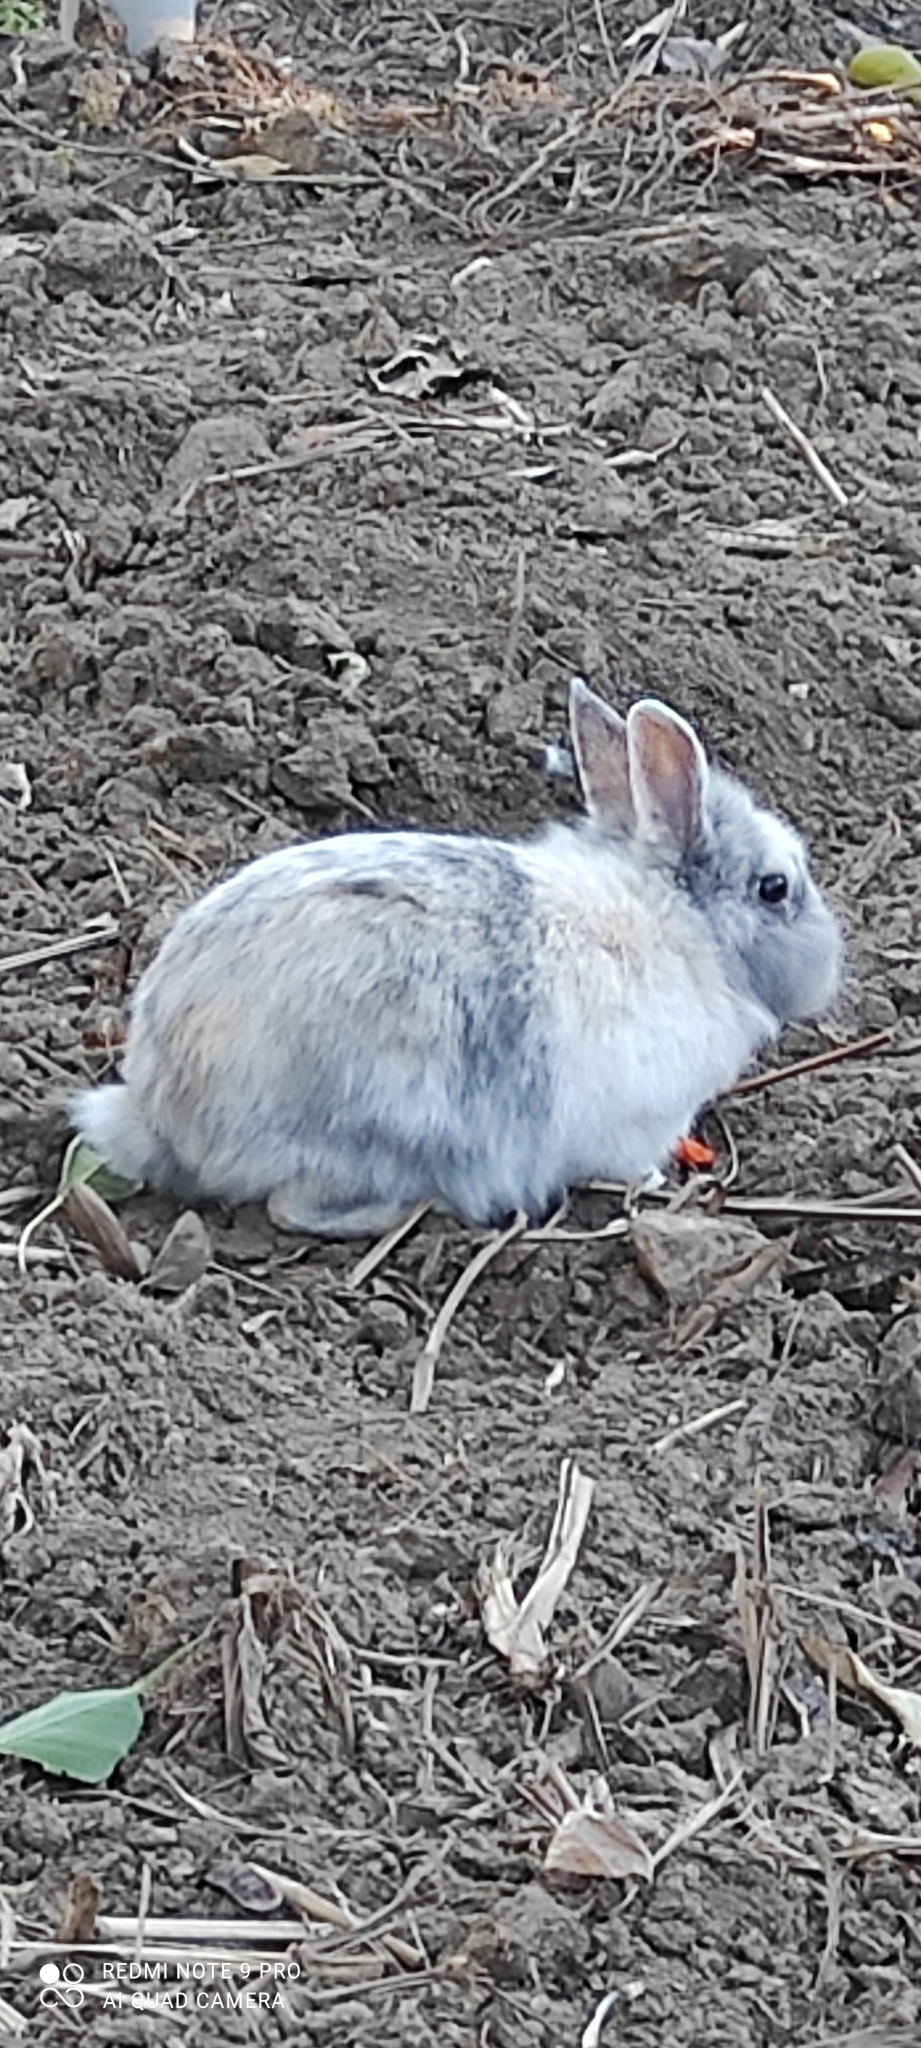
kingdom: Animalia
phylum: Chordata
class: Mammalia
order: Lagomorpha
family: Leporidae
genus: Oryctolagus
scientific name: Oryctolagus cuniculus
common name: European rabbit
